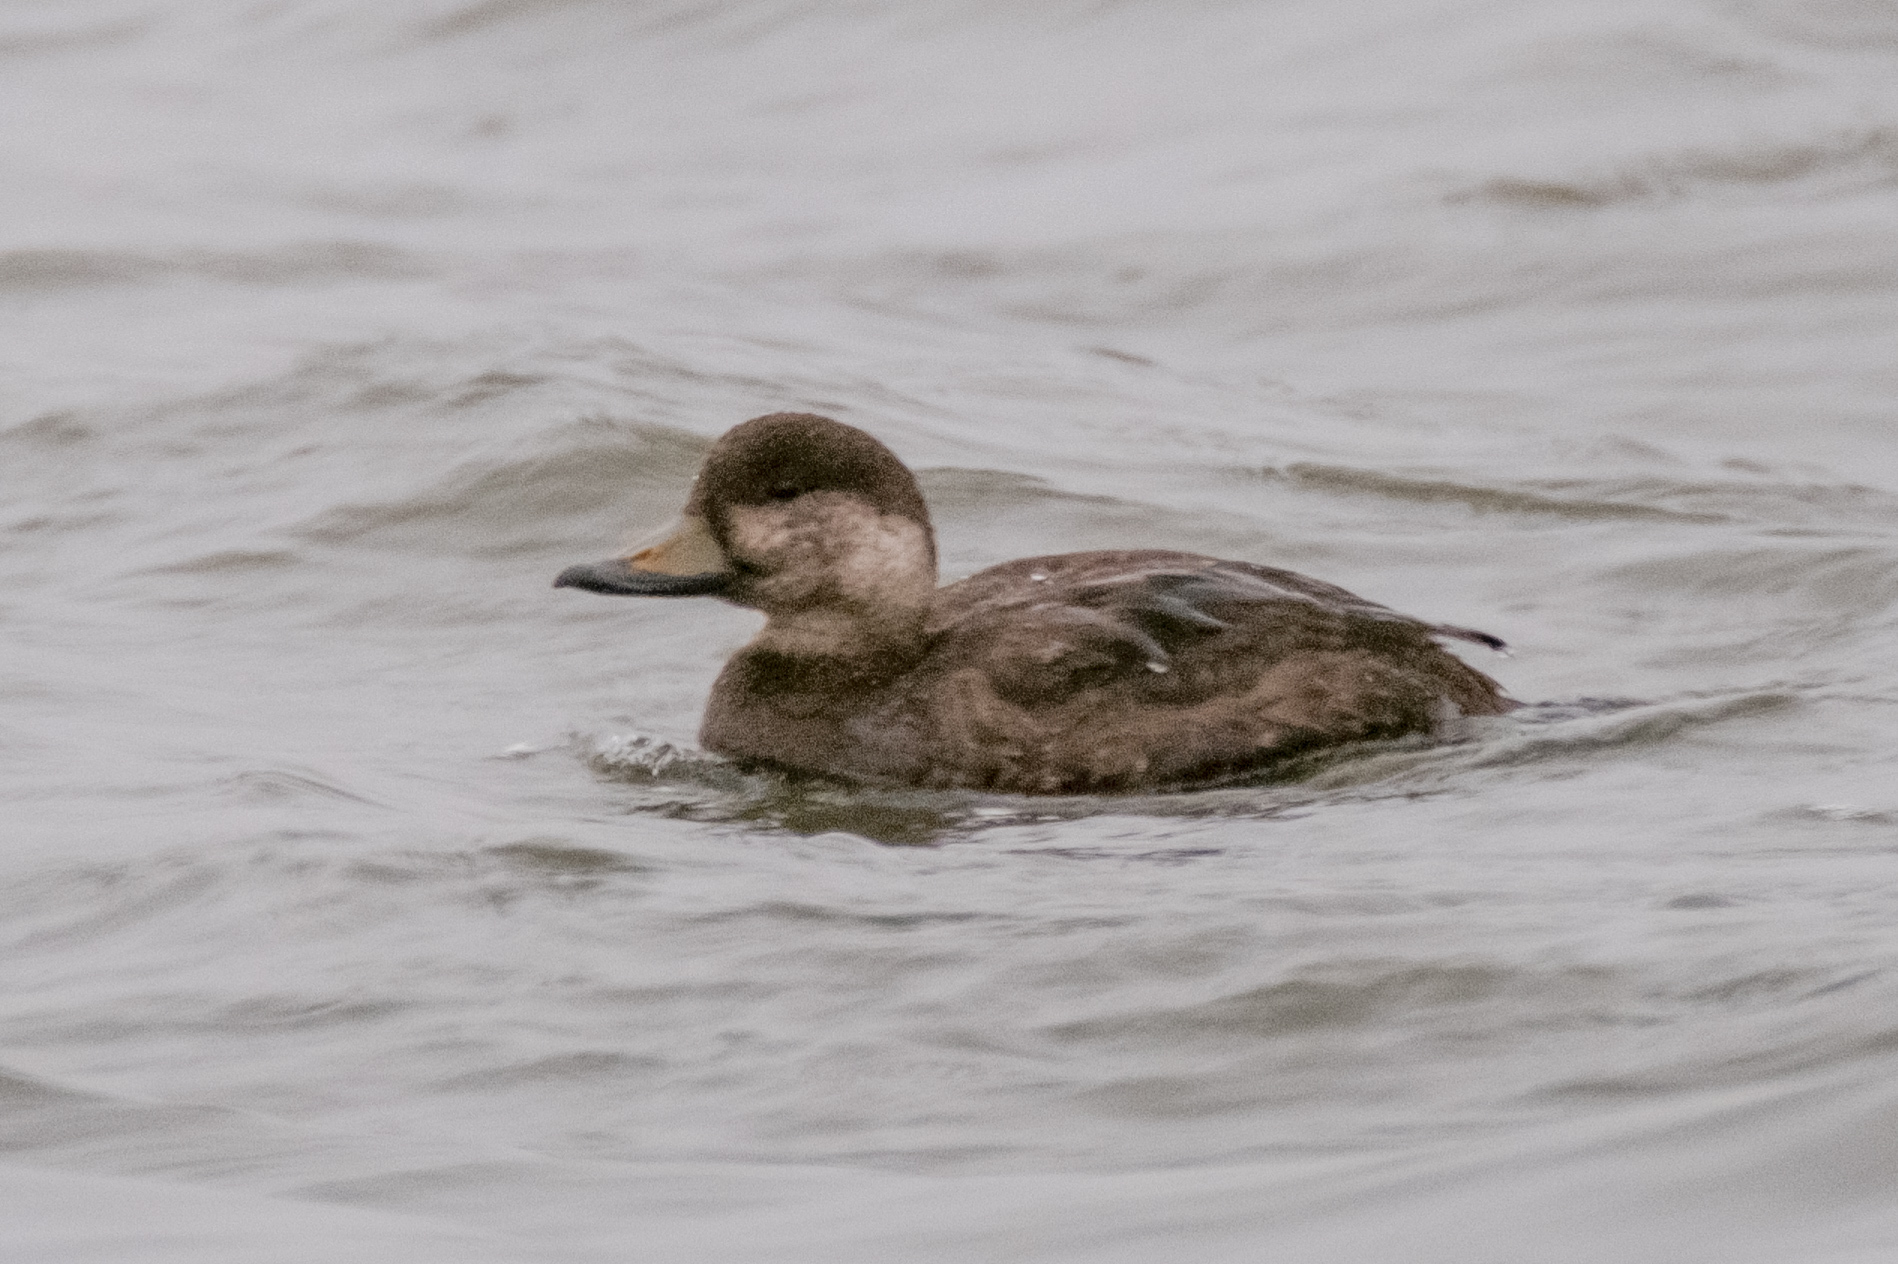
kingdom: Animalia
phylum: Chordata
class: Aves
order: Anseriformes
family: Anatidae
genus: Melanitta
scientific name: Melanitta americana
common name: Black scoter
